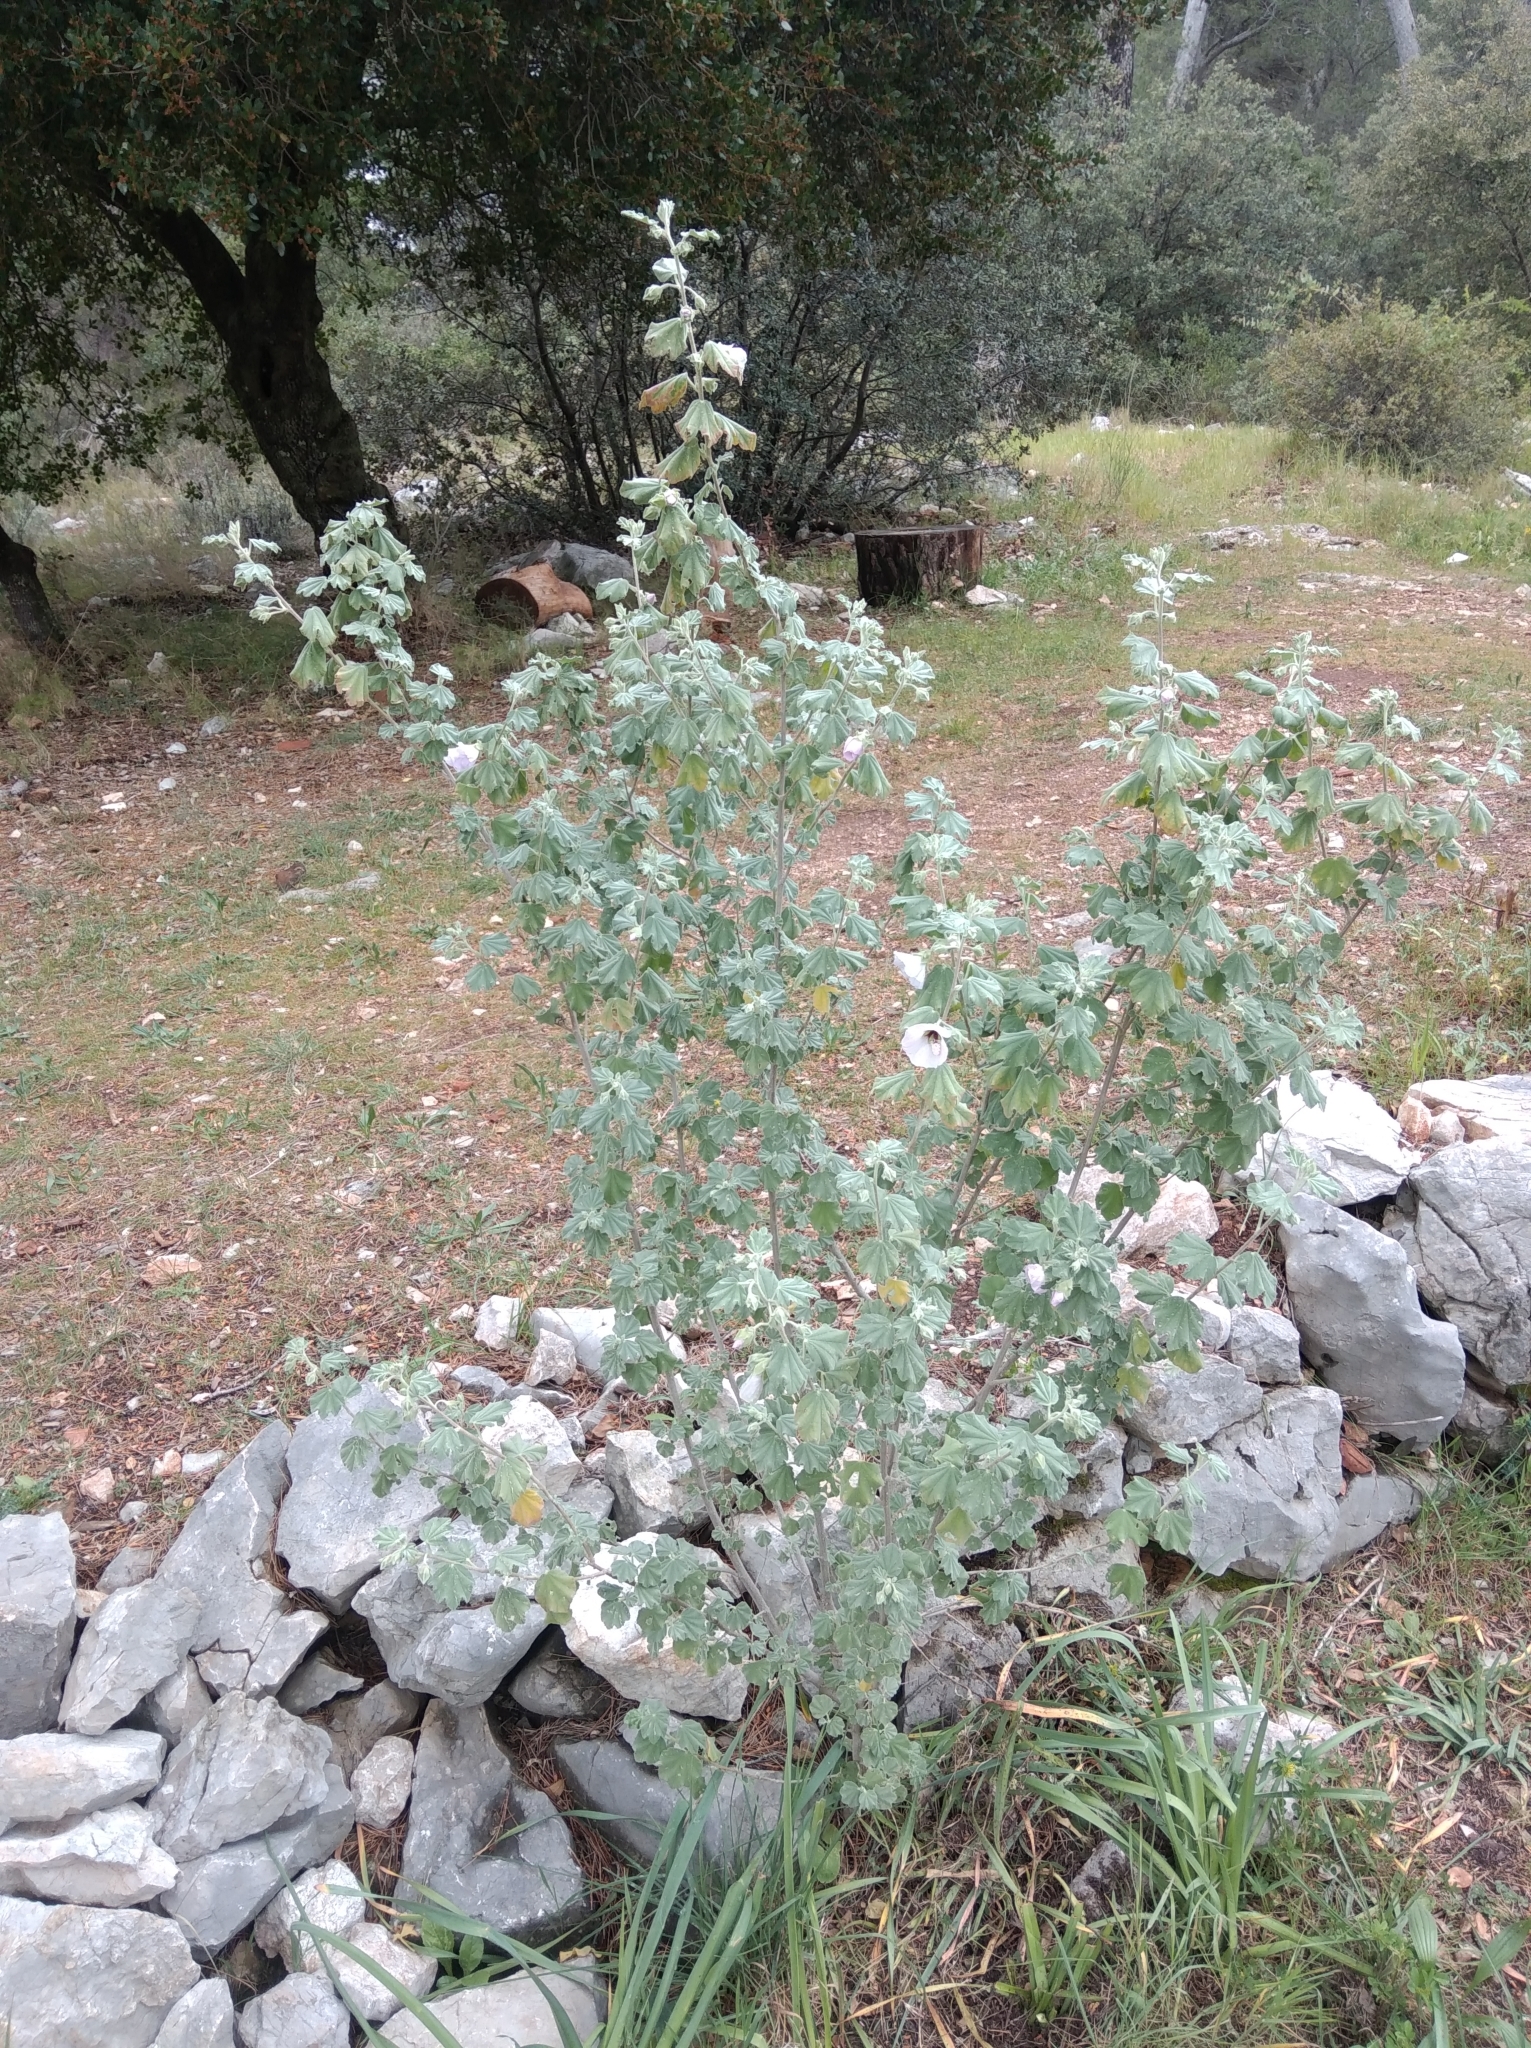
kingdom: Plantae
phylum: Tracheophyta
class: Magnoliopsida
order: Malvales
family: Malvaceae
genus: Malva
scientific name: Malva subovata
